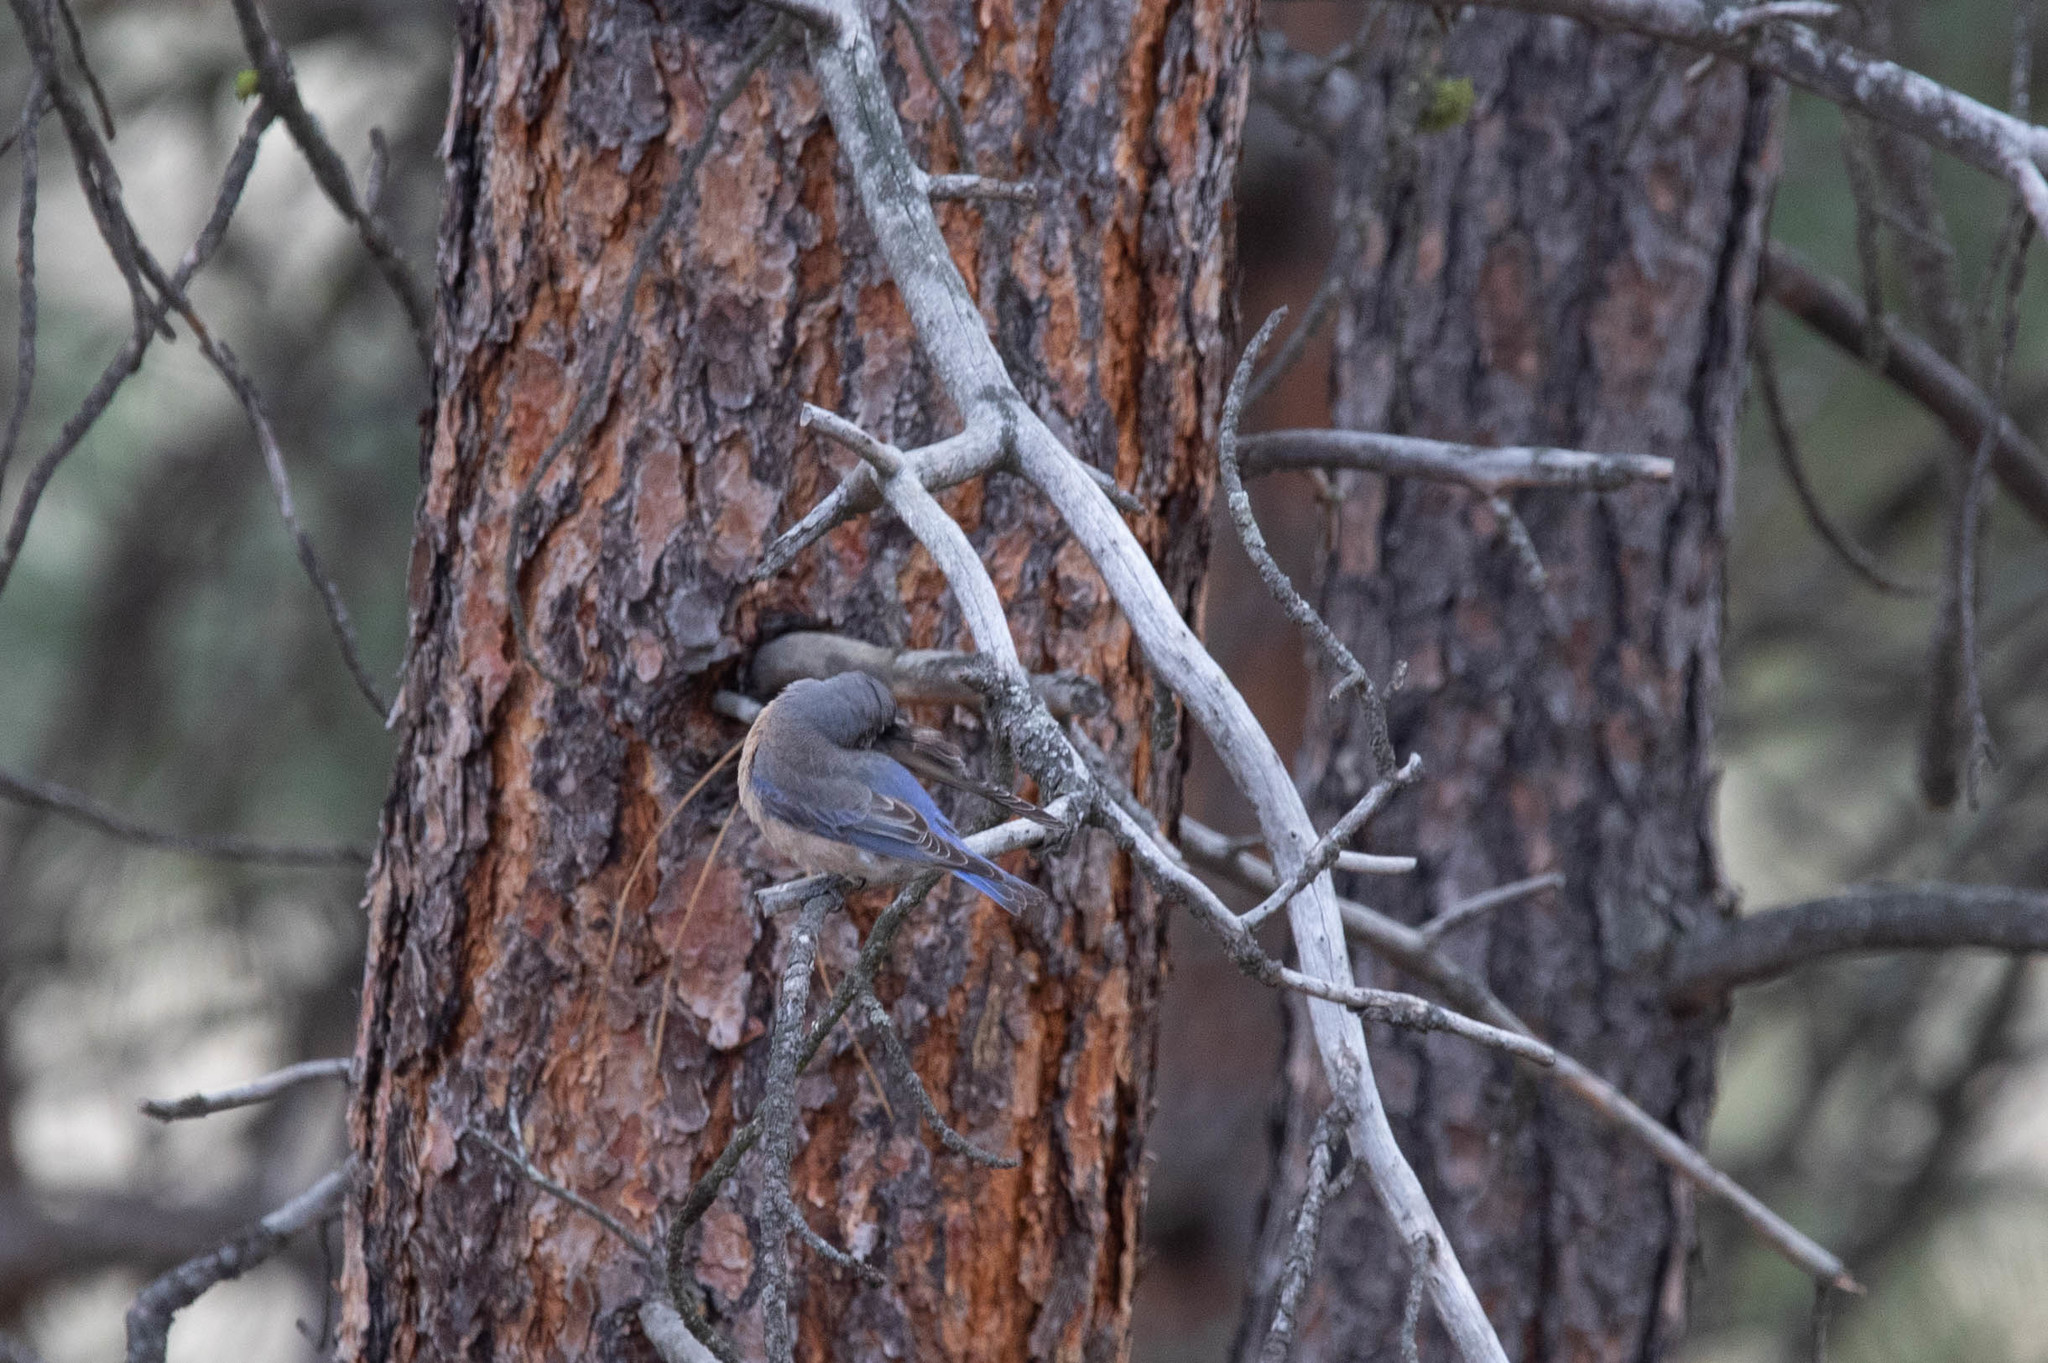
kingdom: Animalia
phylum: Chordata
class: Aves
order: Passeriformes
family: Turdidae
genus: Sialia
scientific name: Sialia mexicana
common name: Western bluebird
